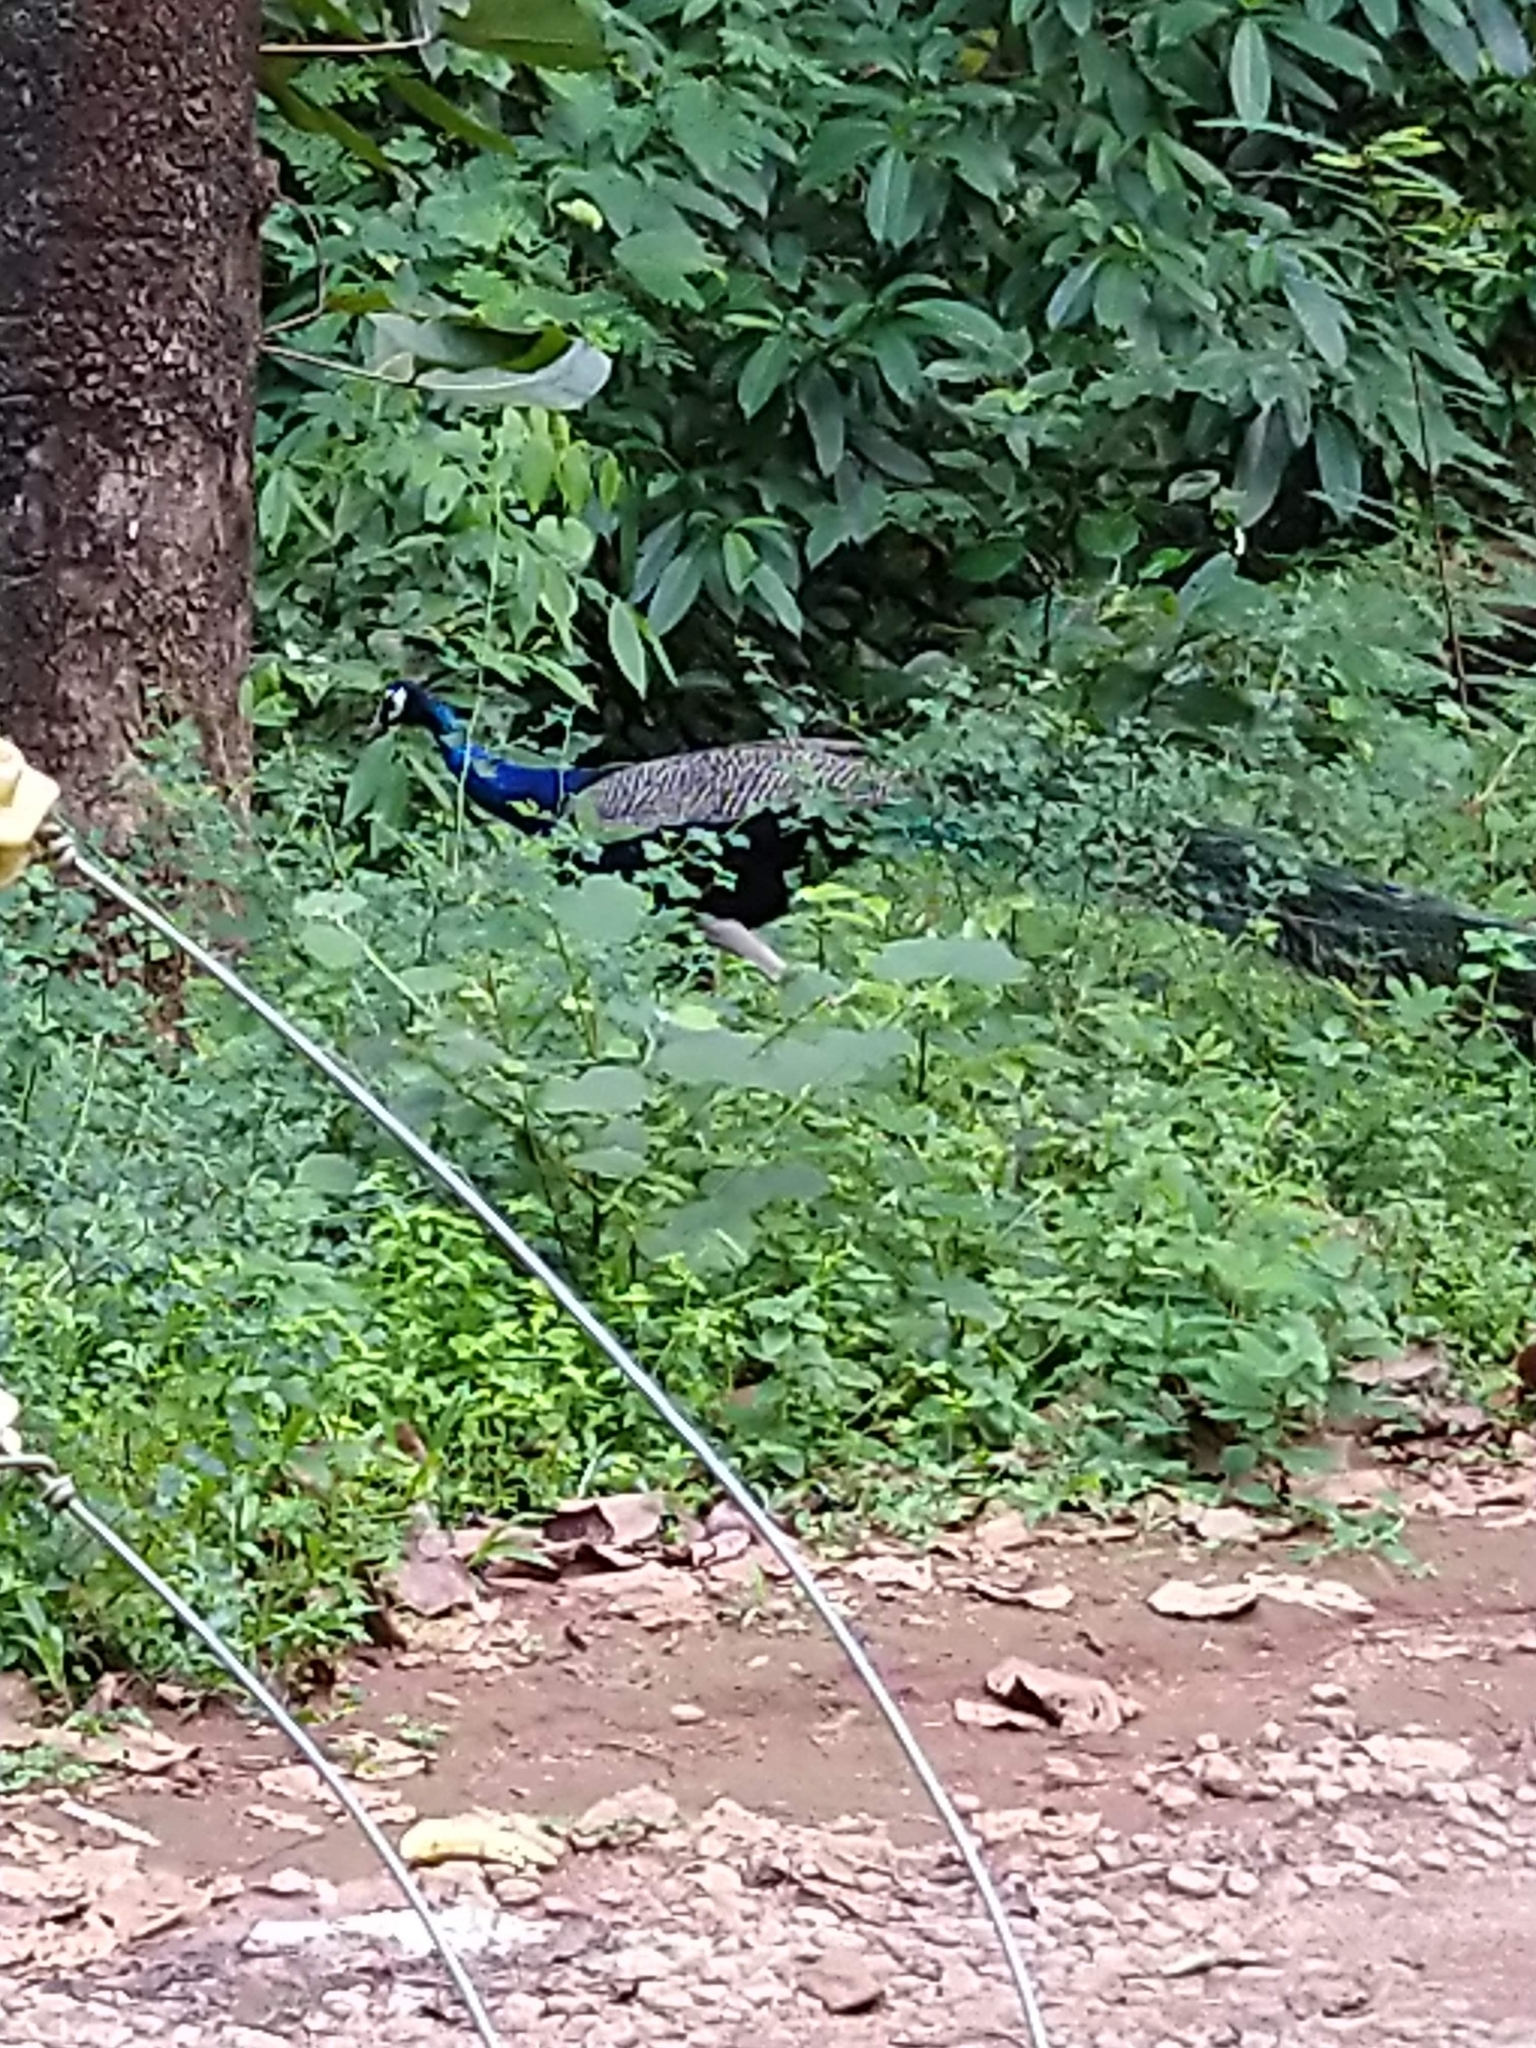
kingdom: Animalia
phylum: Chordata
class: Aves
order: Galliformes
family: Phasianidae
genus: Pavo
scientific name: Pavo cristatus
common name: Indian peafowl
